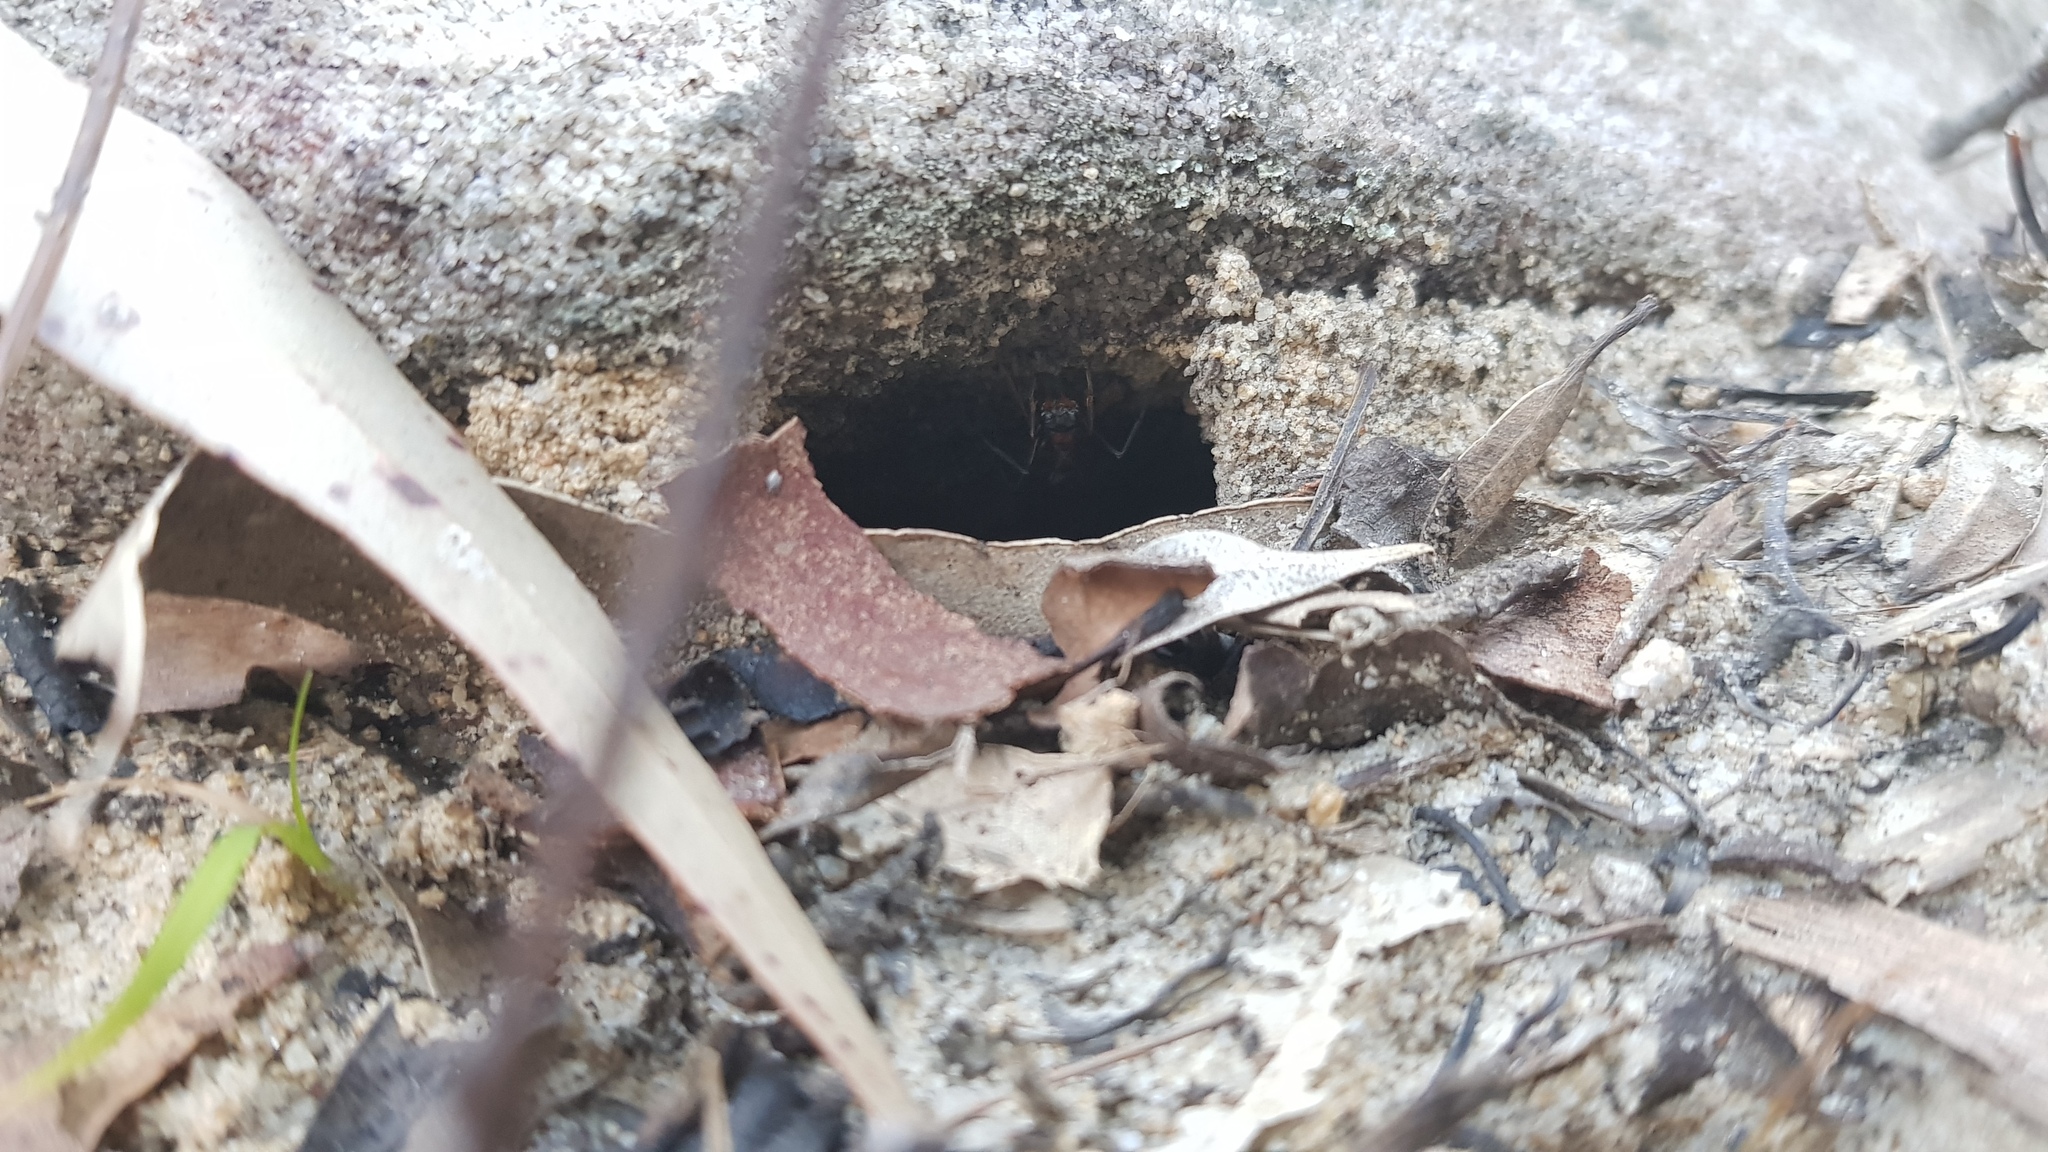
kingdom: Animalia
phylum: Arthropoda
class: Insecta
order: Hymenoptera
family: Formicidae
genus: Myrmecia
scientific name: Myrmecia nigrocincta
